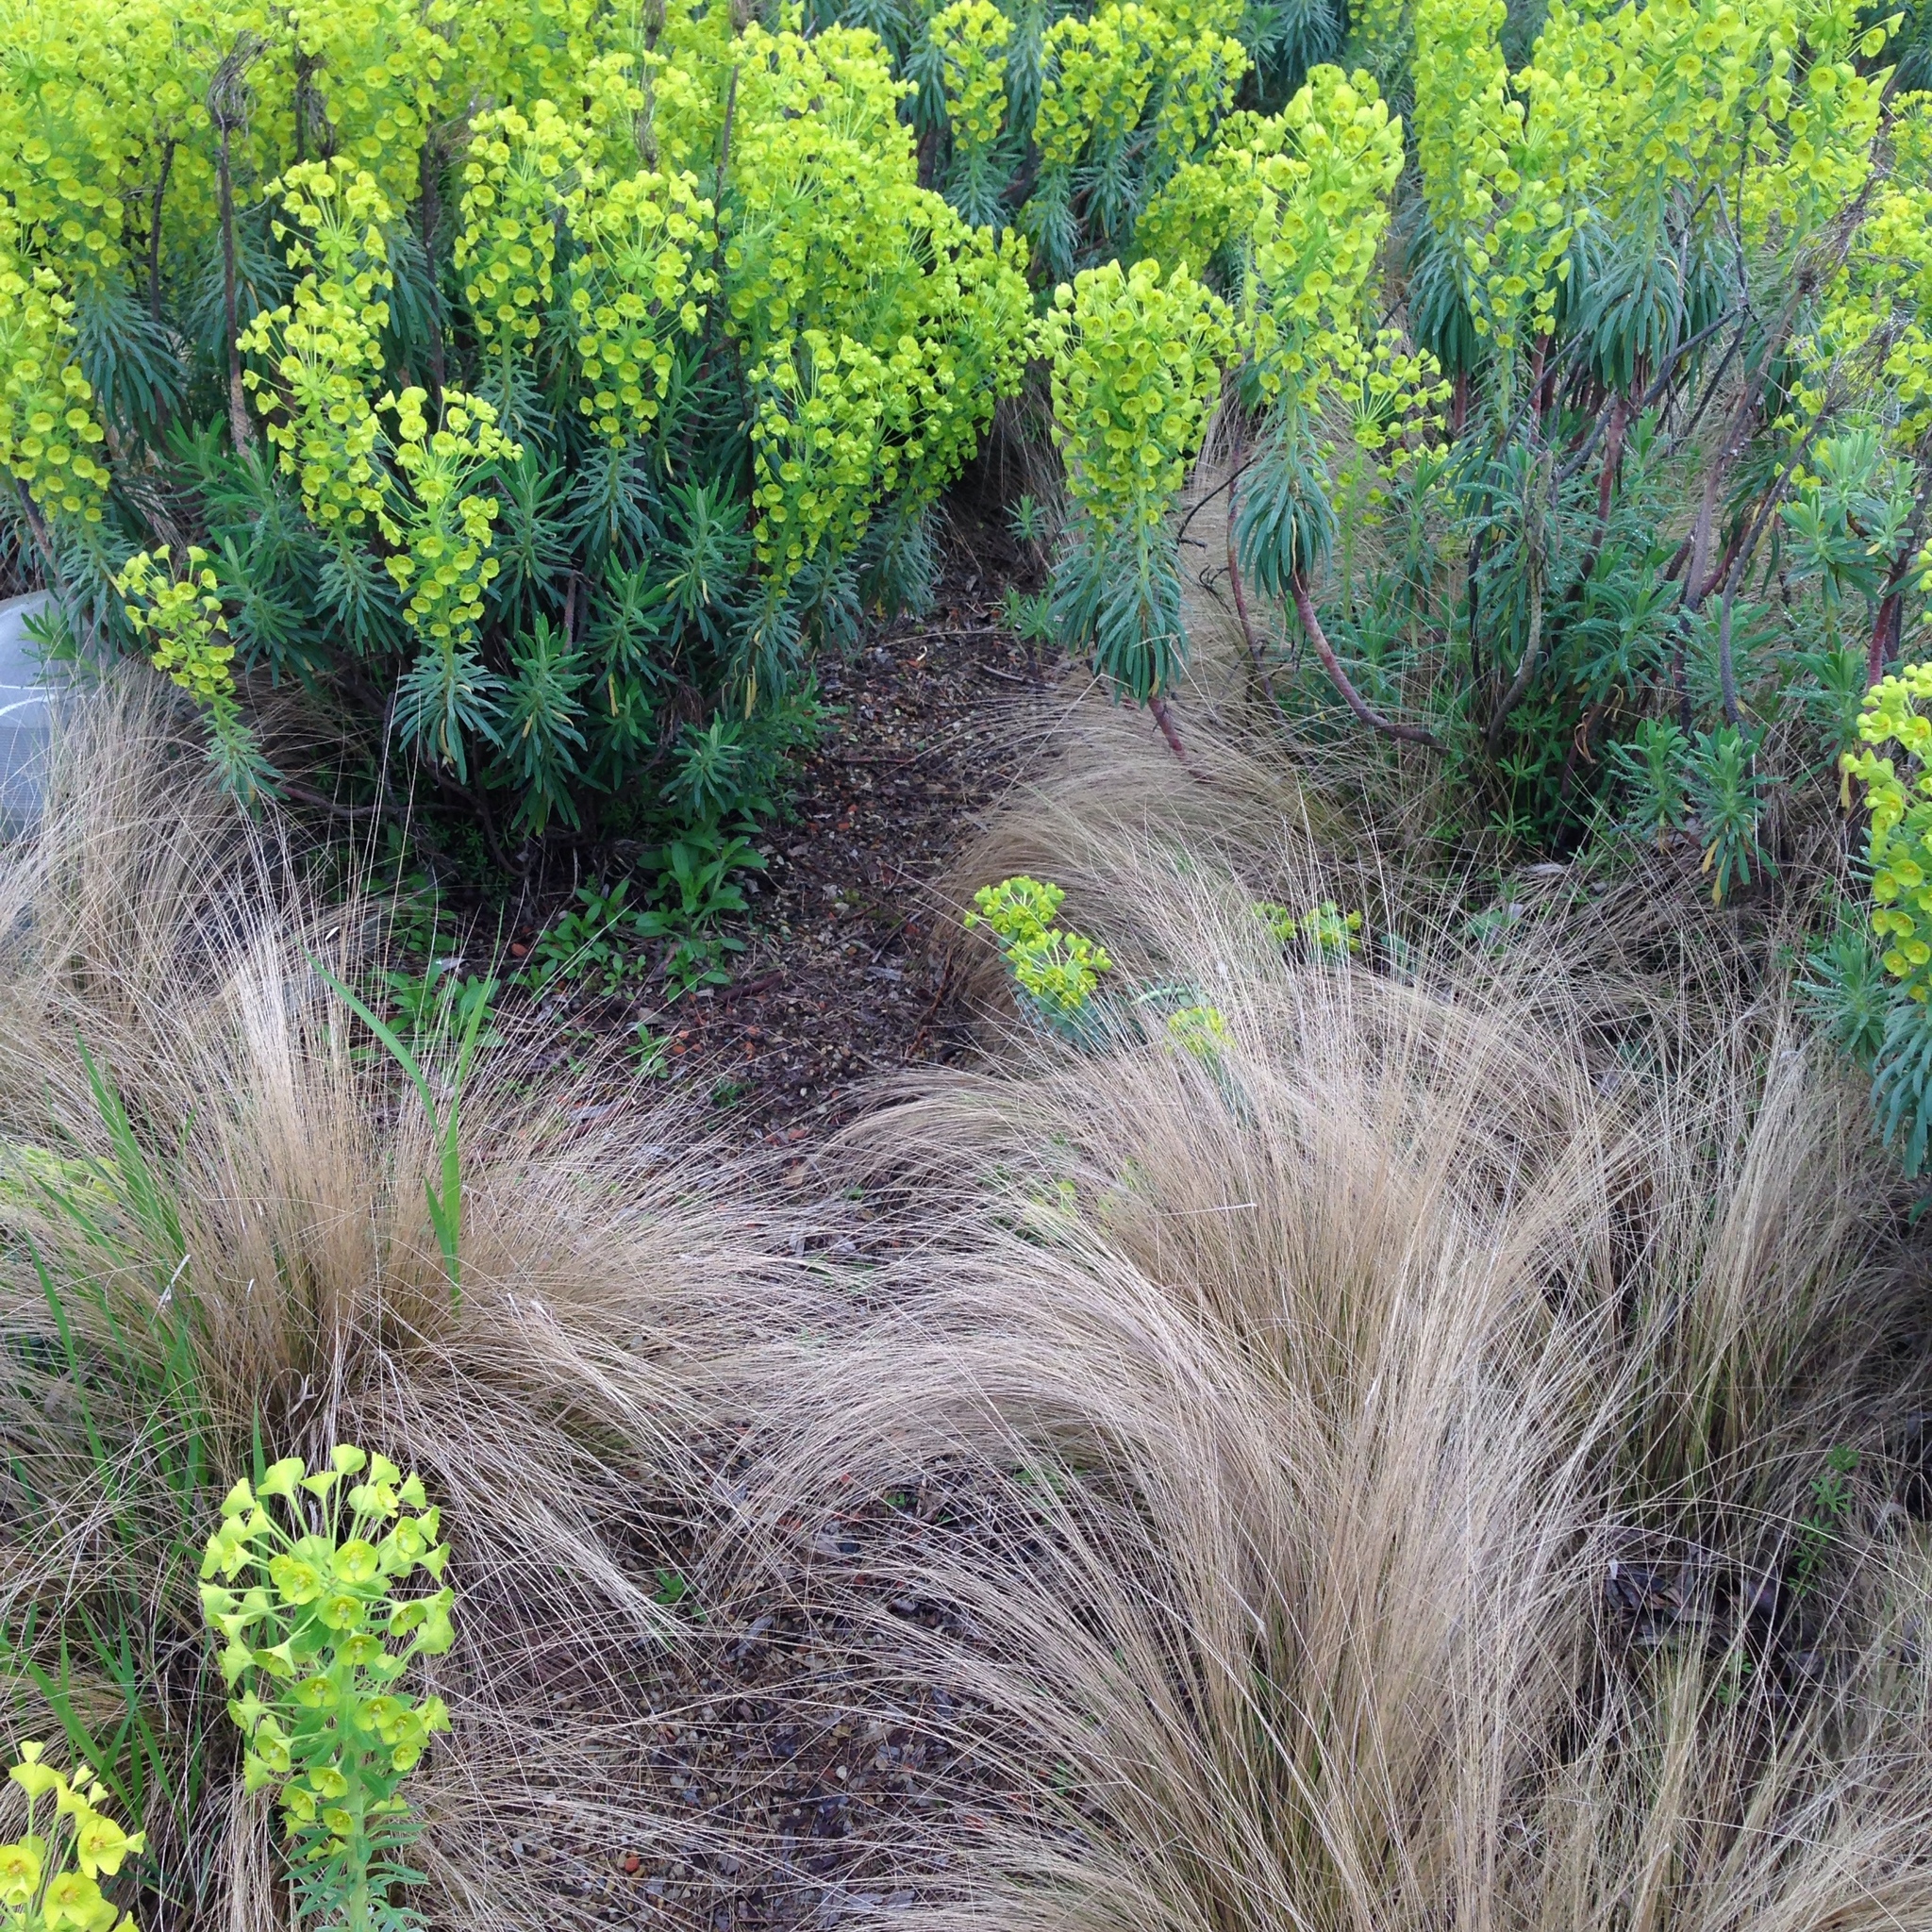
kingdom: Plantae
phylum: Tracheophyta
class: Magnoliopsida
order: Malpighiales
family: Euphorbiaceae
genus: Euphorbia
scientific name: Euphorbia characias
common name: Mediterranean spurge
